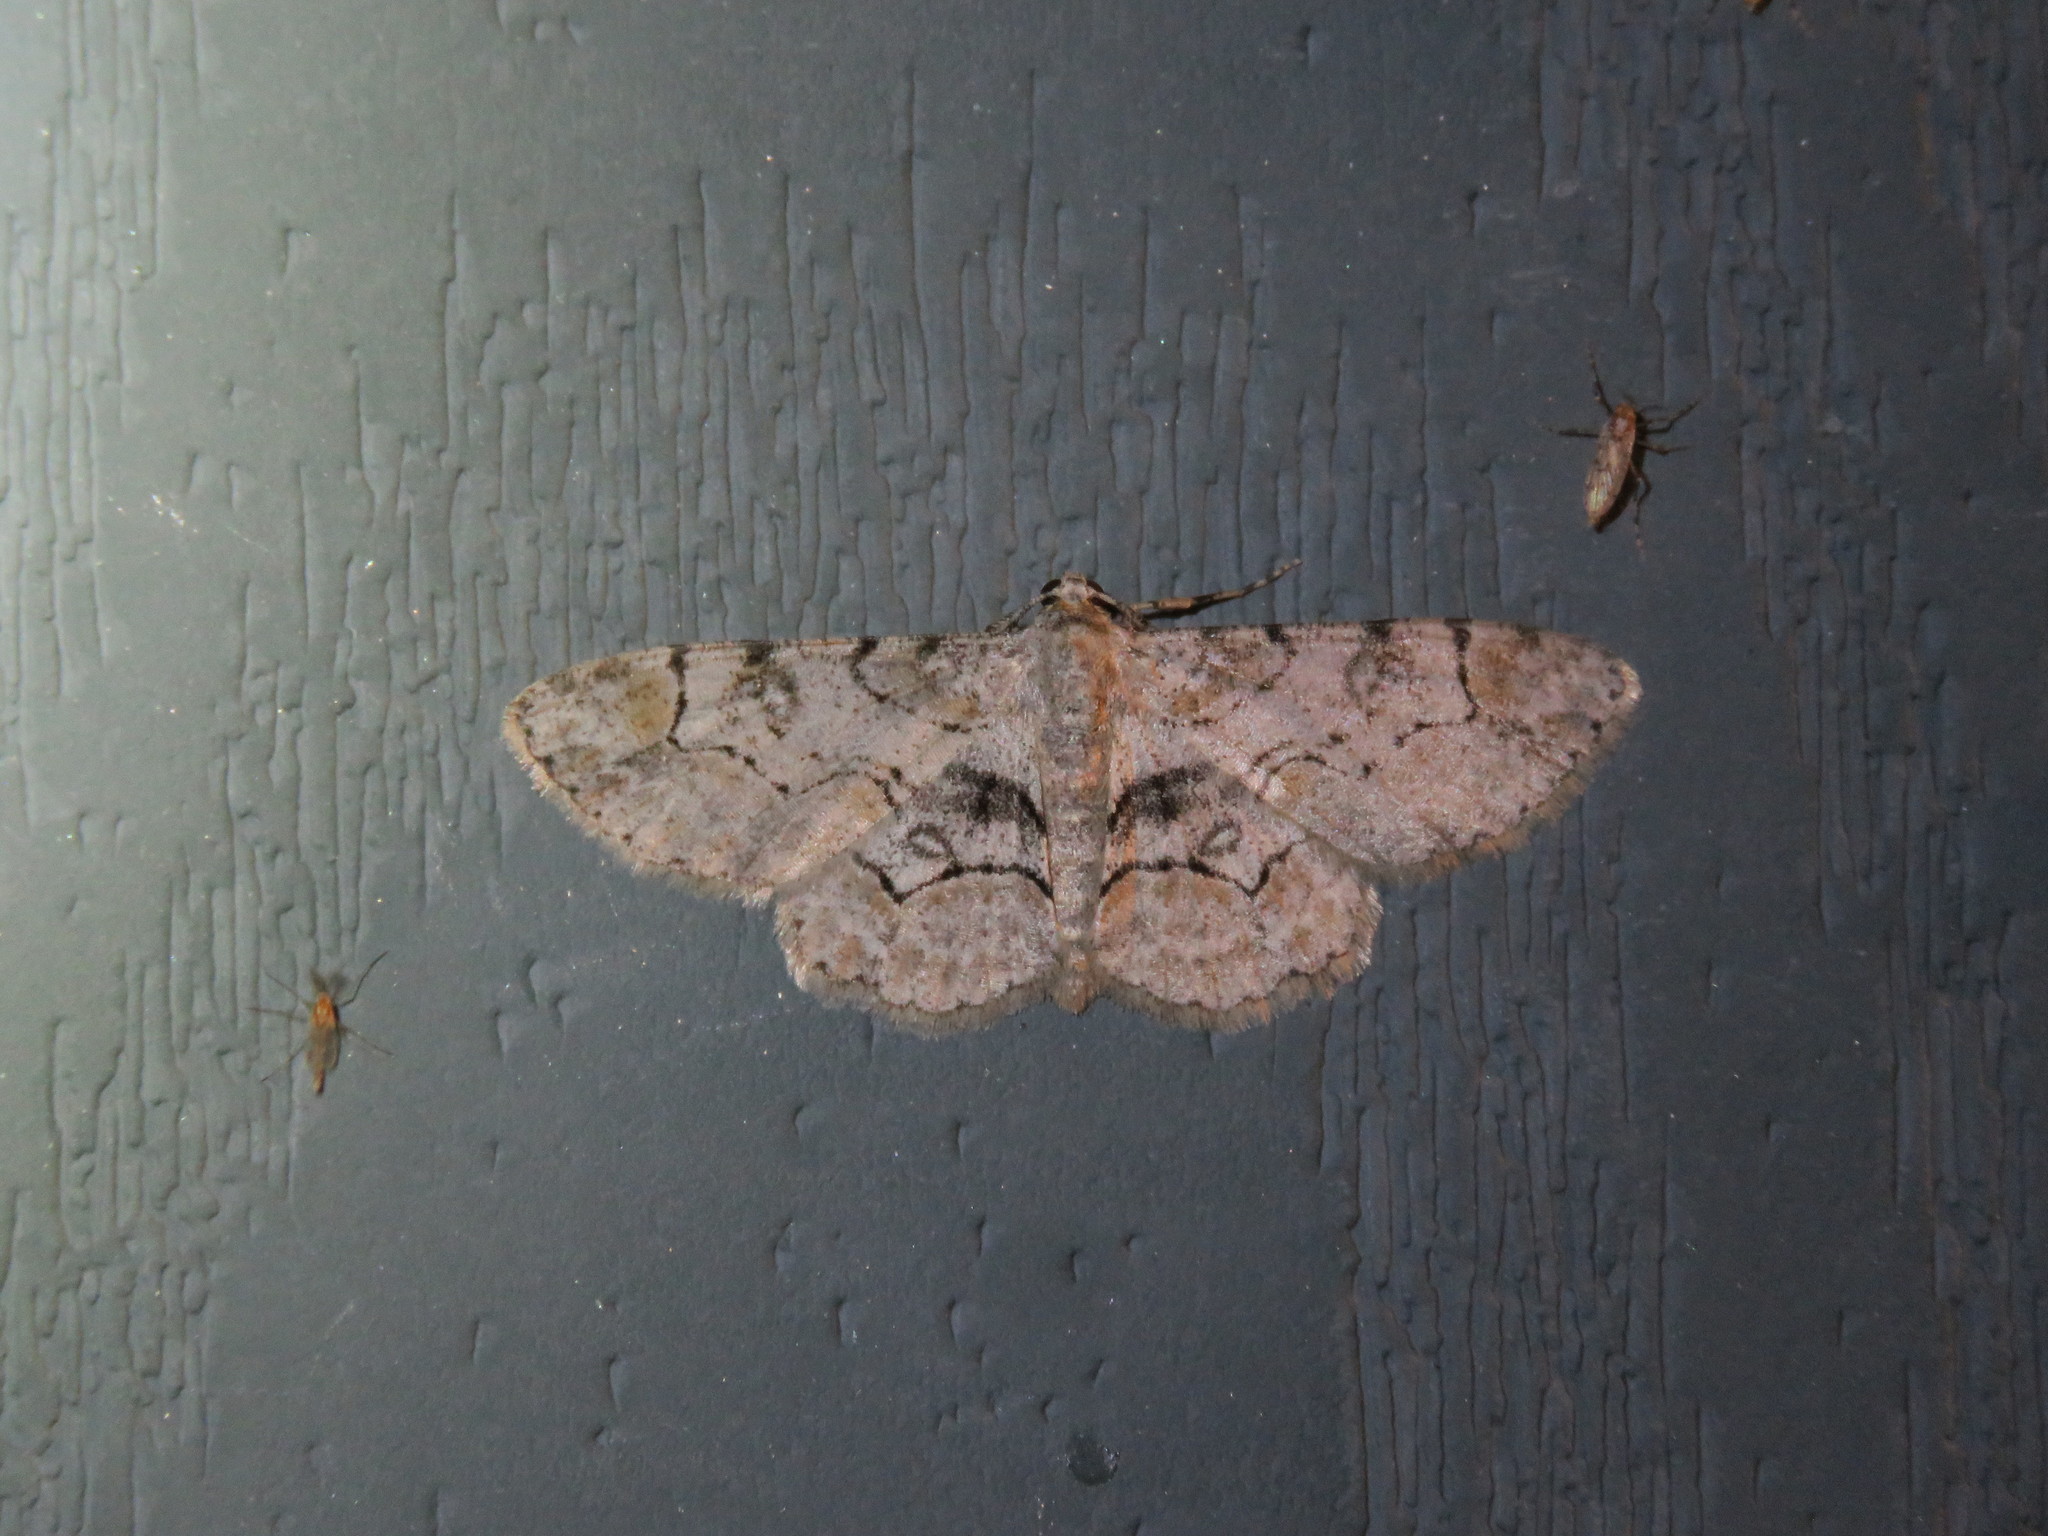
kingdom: Animalia
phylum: Arthropoda
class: Insecta
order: Lepidoptera
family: Geometridae
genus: Iridopsis
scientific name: Iridopsis larvaria
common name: Bent-line gray
